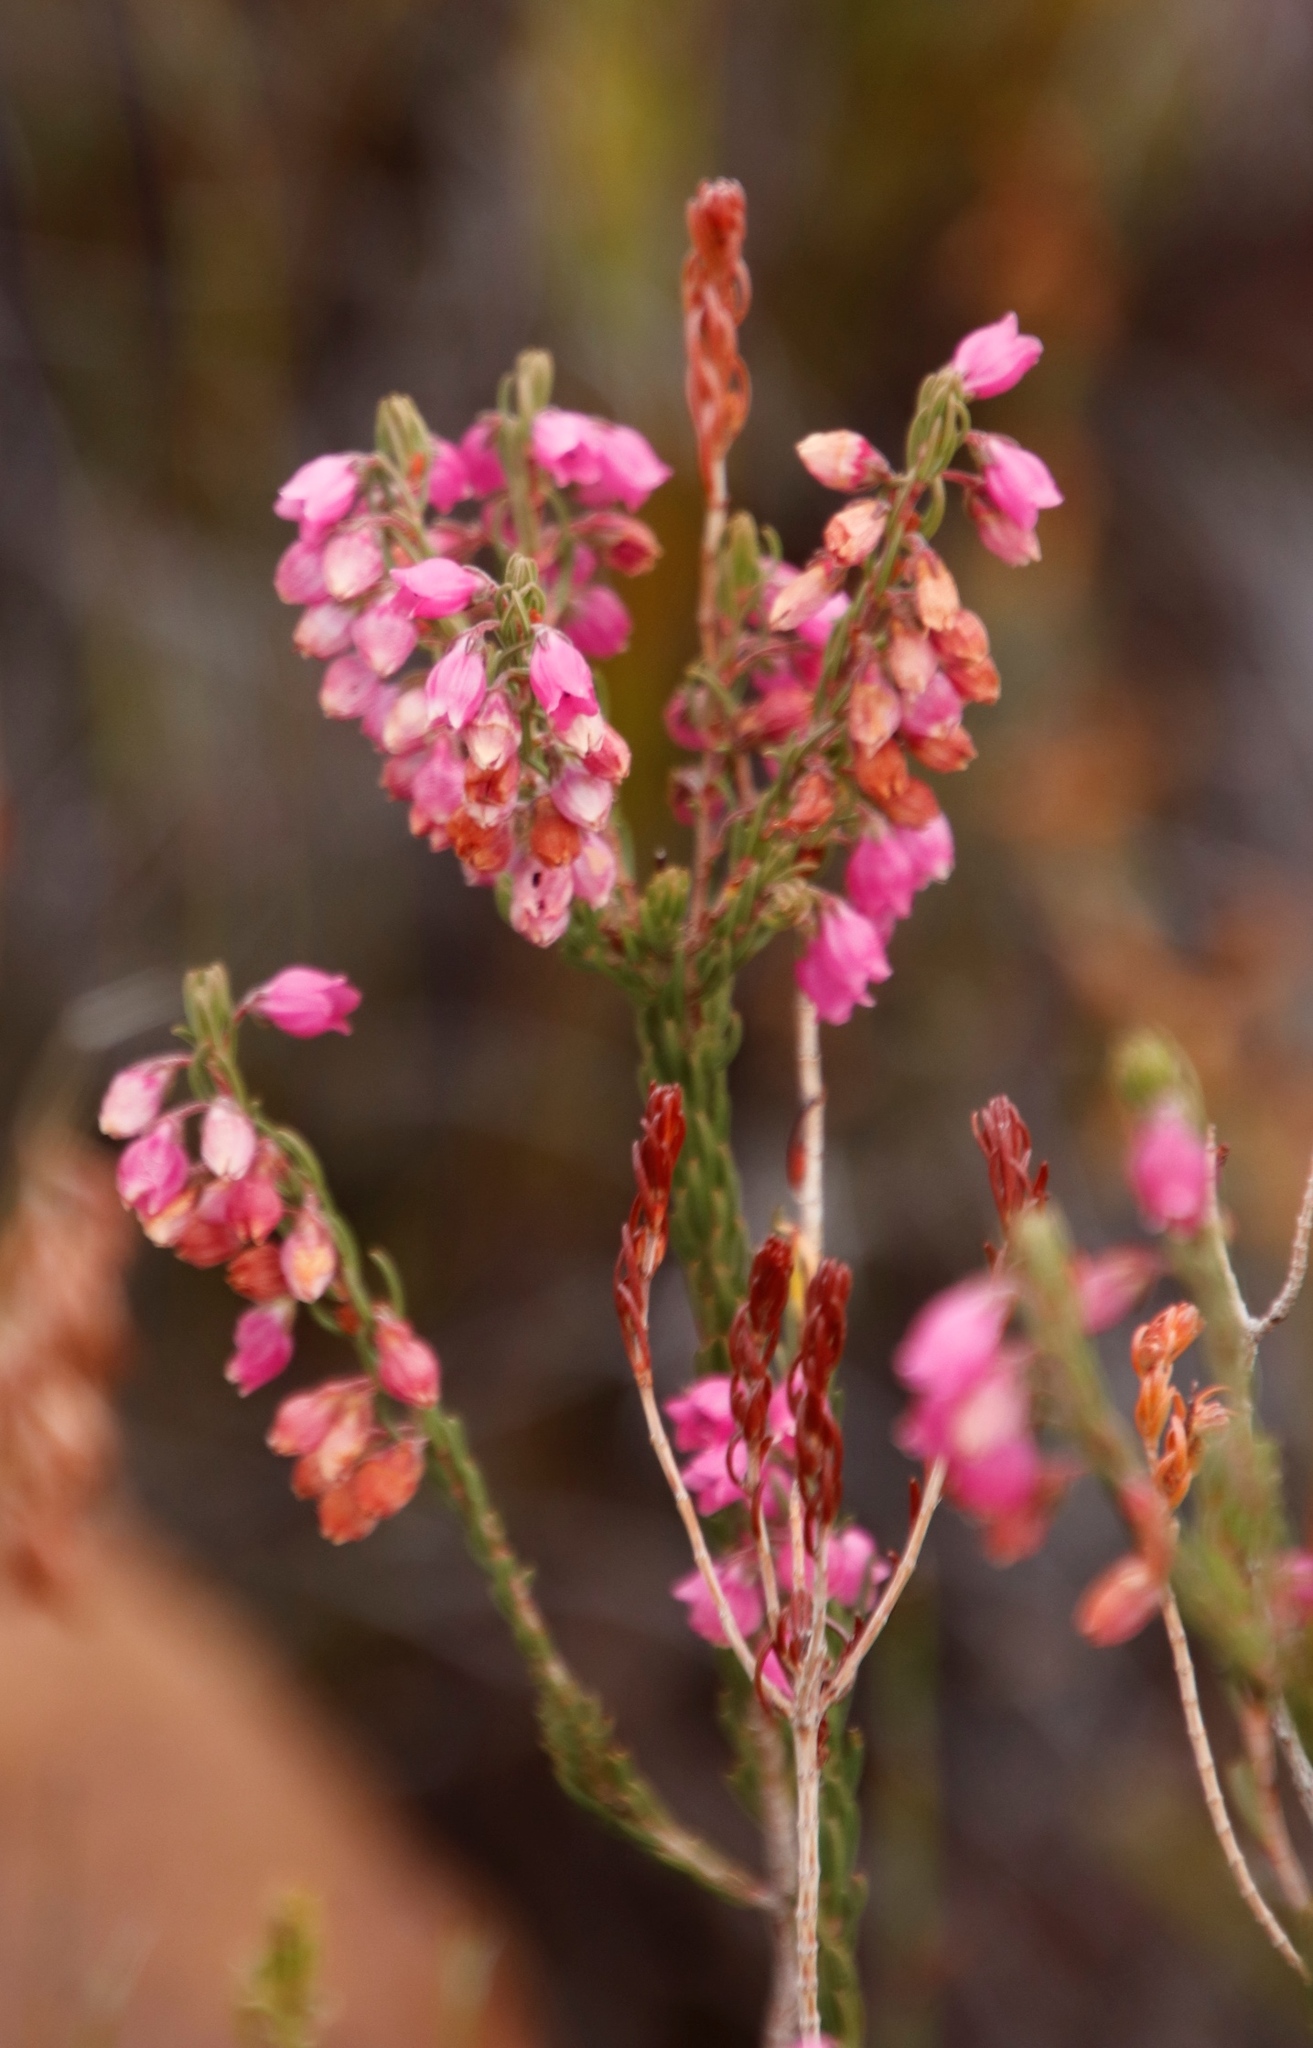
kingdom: Plantae
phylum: Tracheophyta
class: Magnoliopsida
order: Ericales
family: Ericaceae
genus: Erica
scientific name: Erica viscaria
